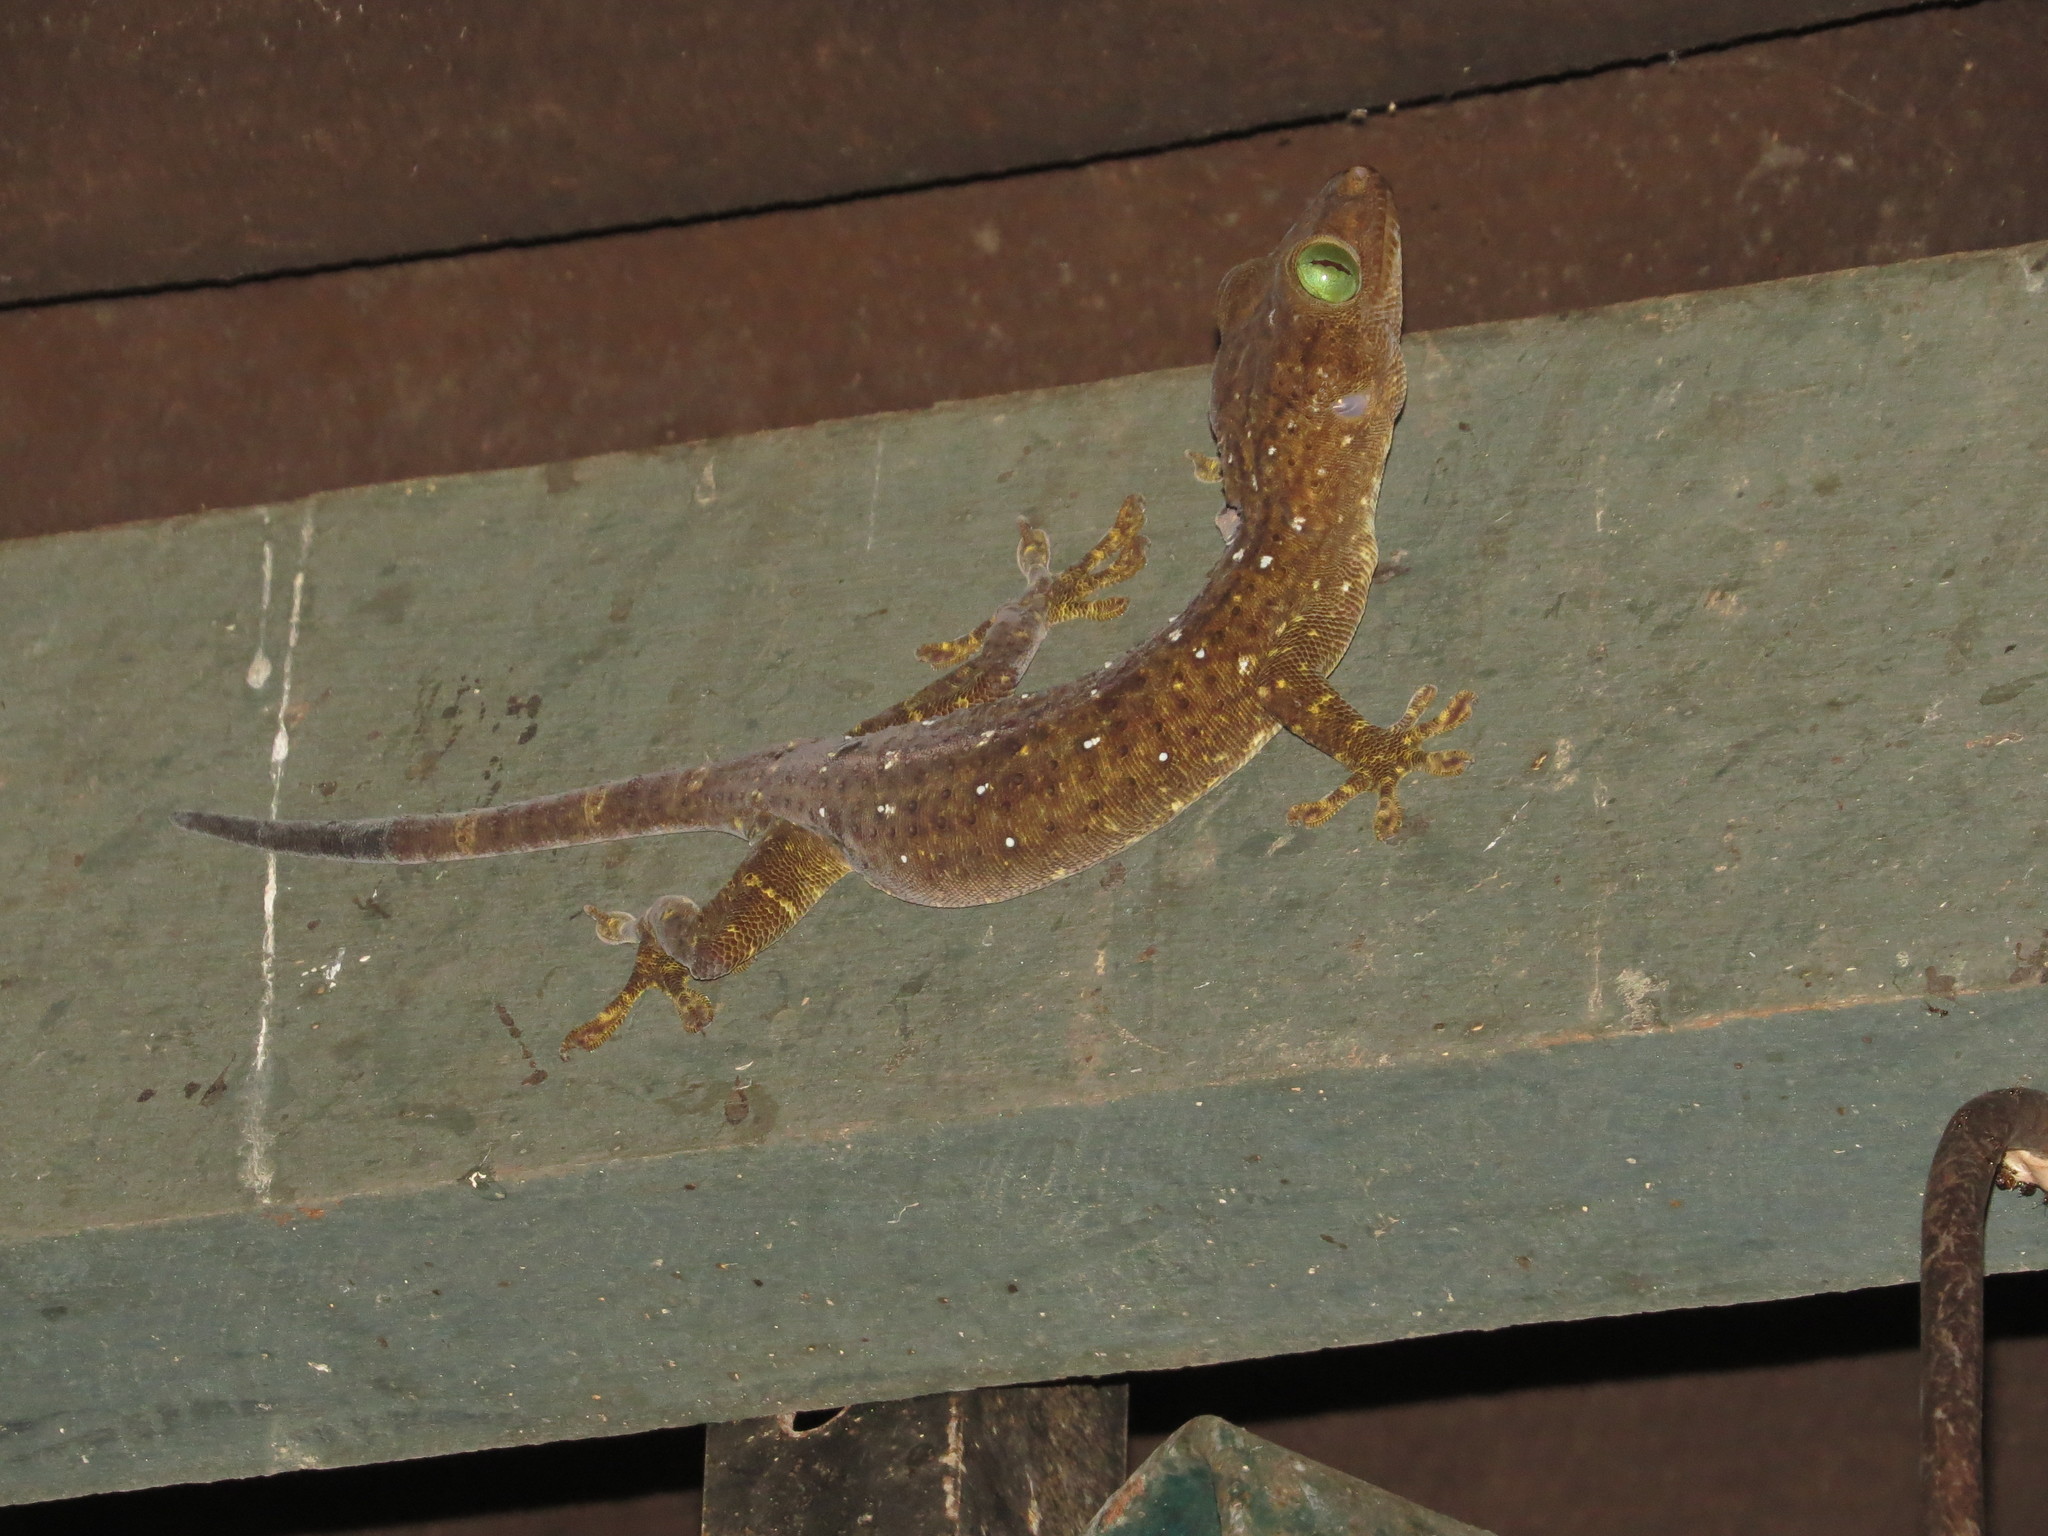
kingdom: Animalia
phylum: Chordata
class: Squamata
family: Gekkonidae
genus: Gekko
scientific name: Gekko albofasciolatus
